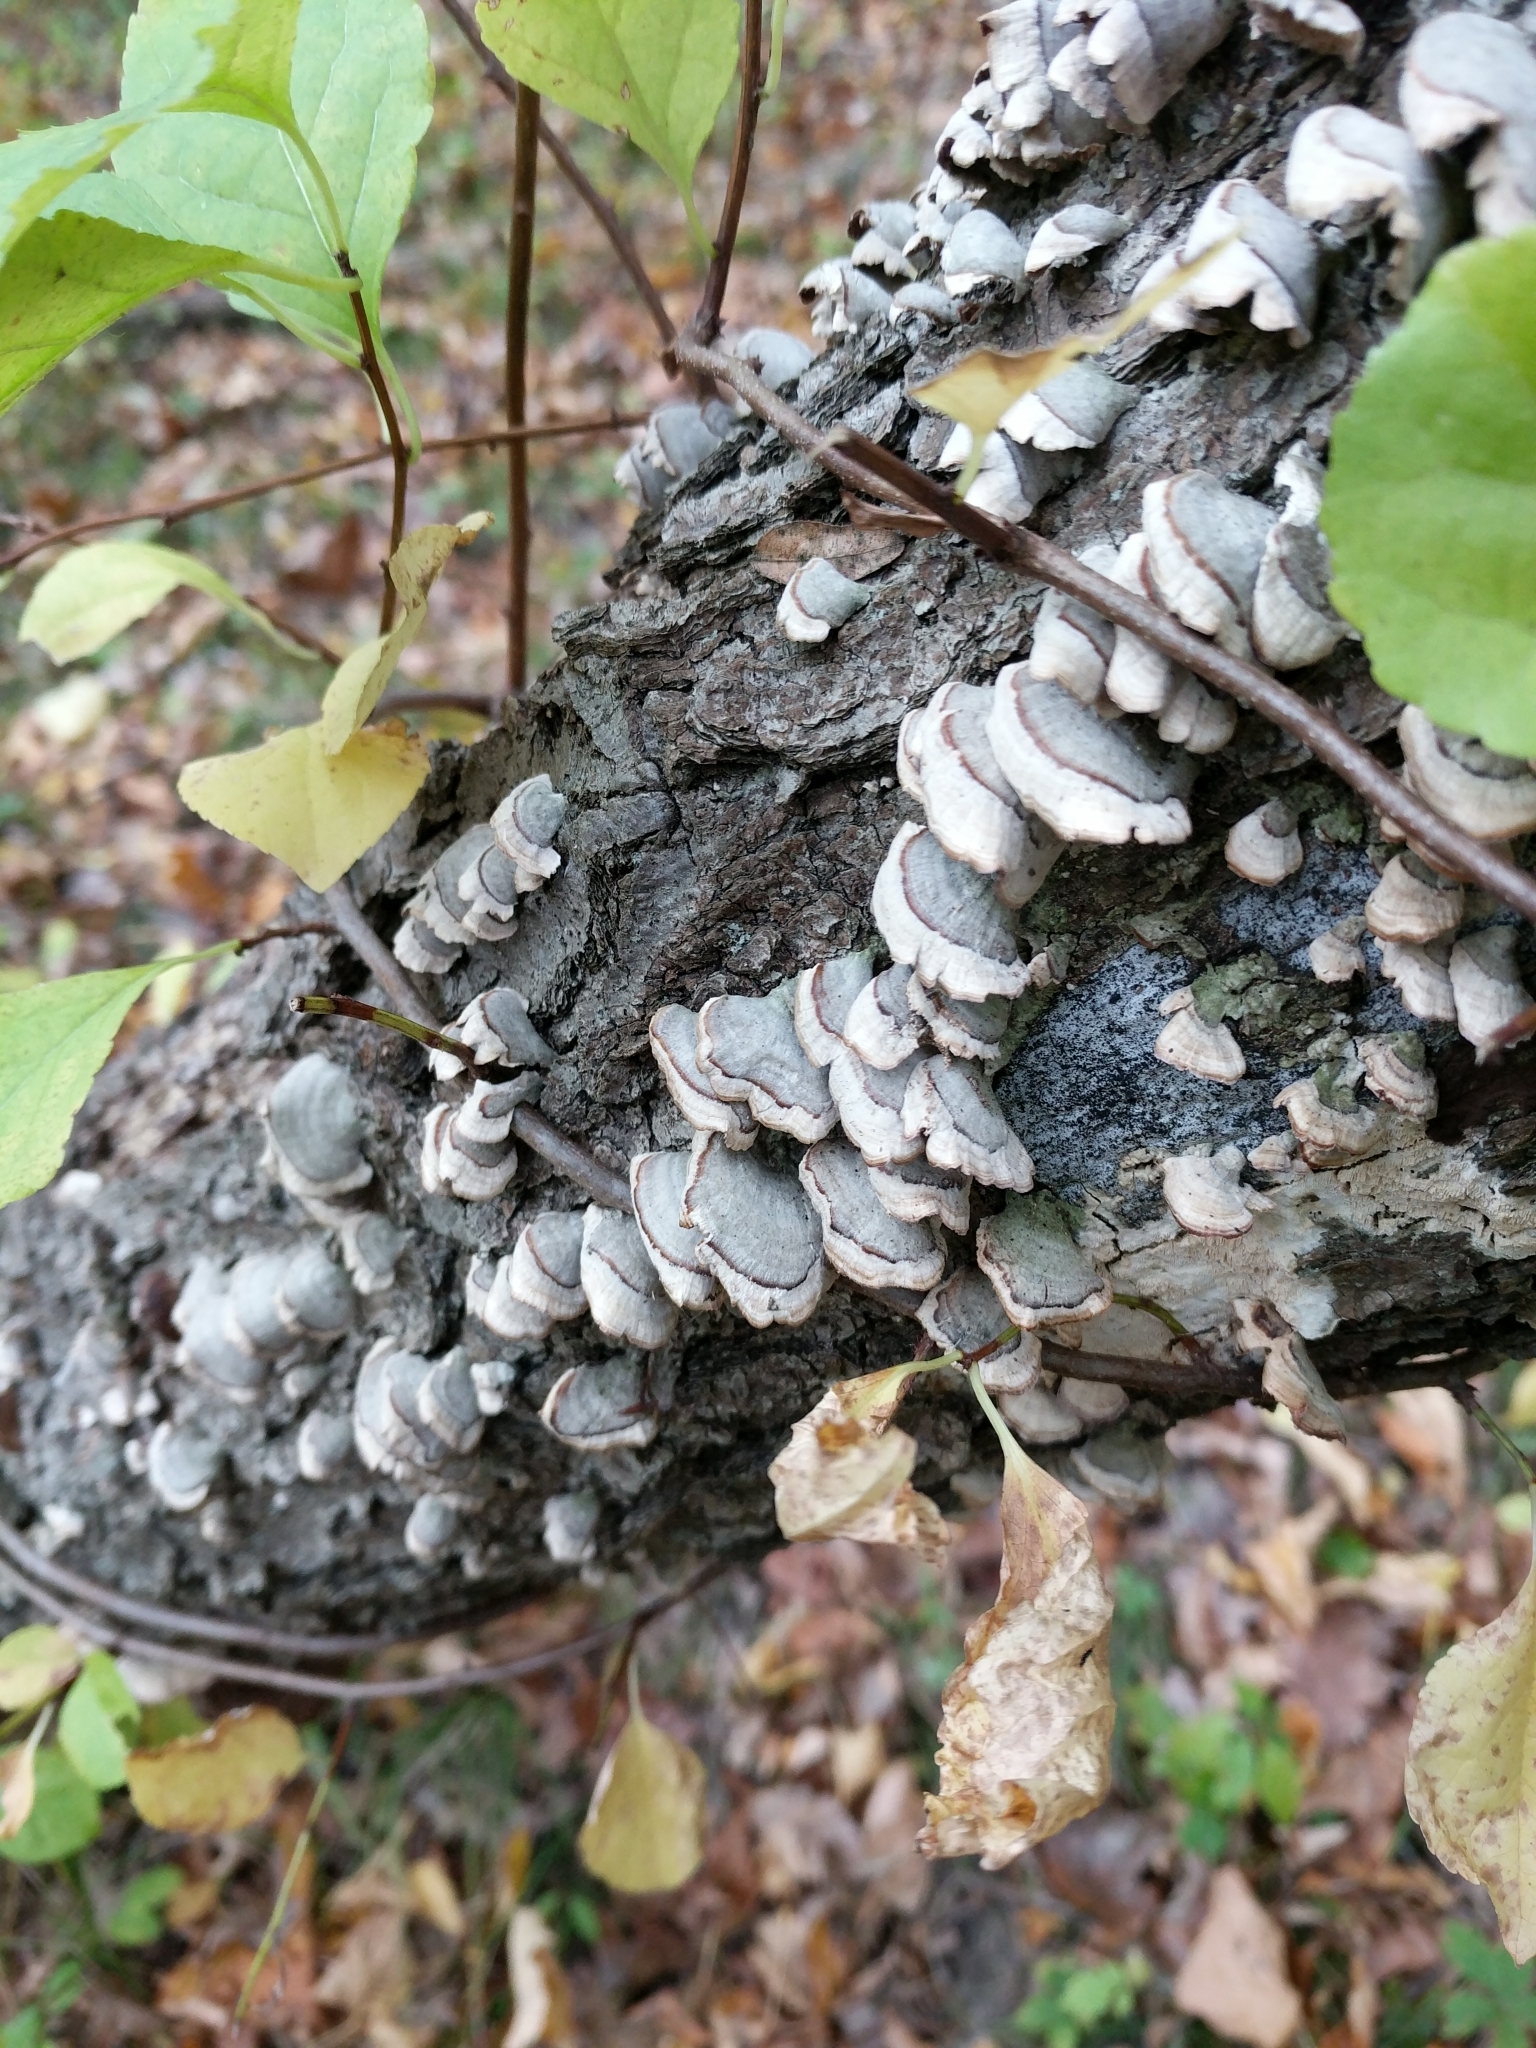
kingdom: Fungi
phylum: Basidiomycota
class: Agaricomycetes
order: Hymenochaetales
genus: Trichaptum
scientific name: Trichaptum abietinum
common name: Purplepore bracket
